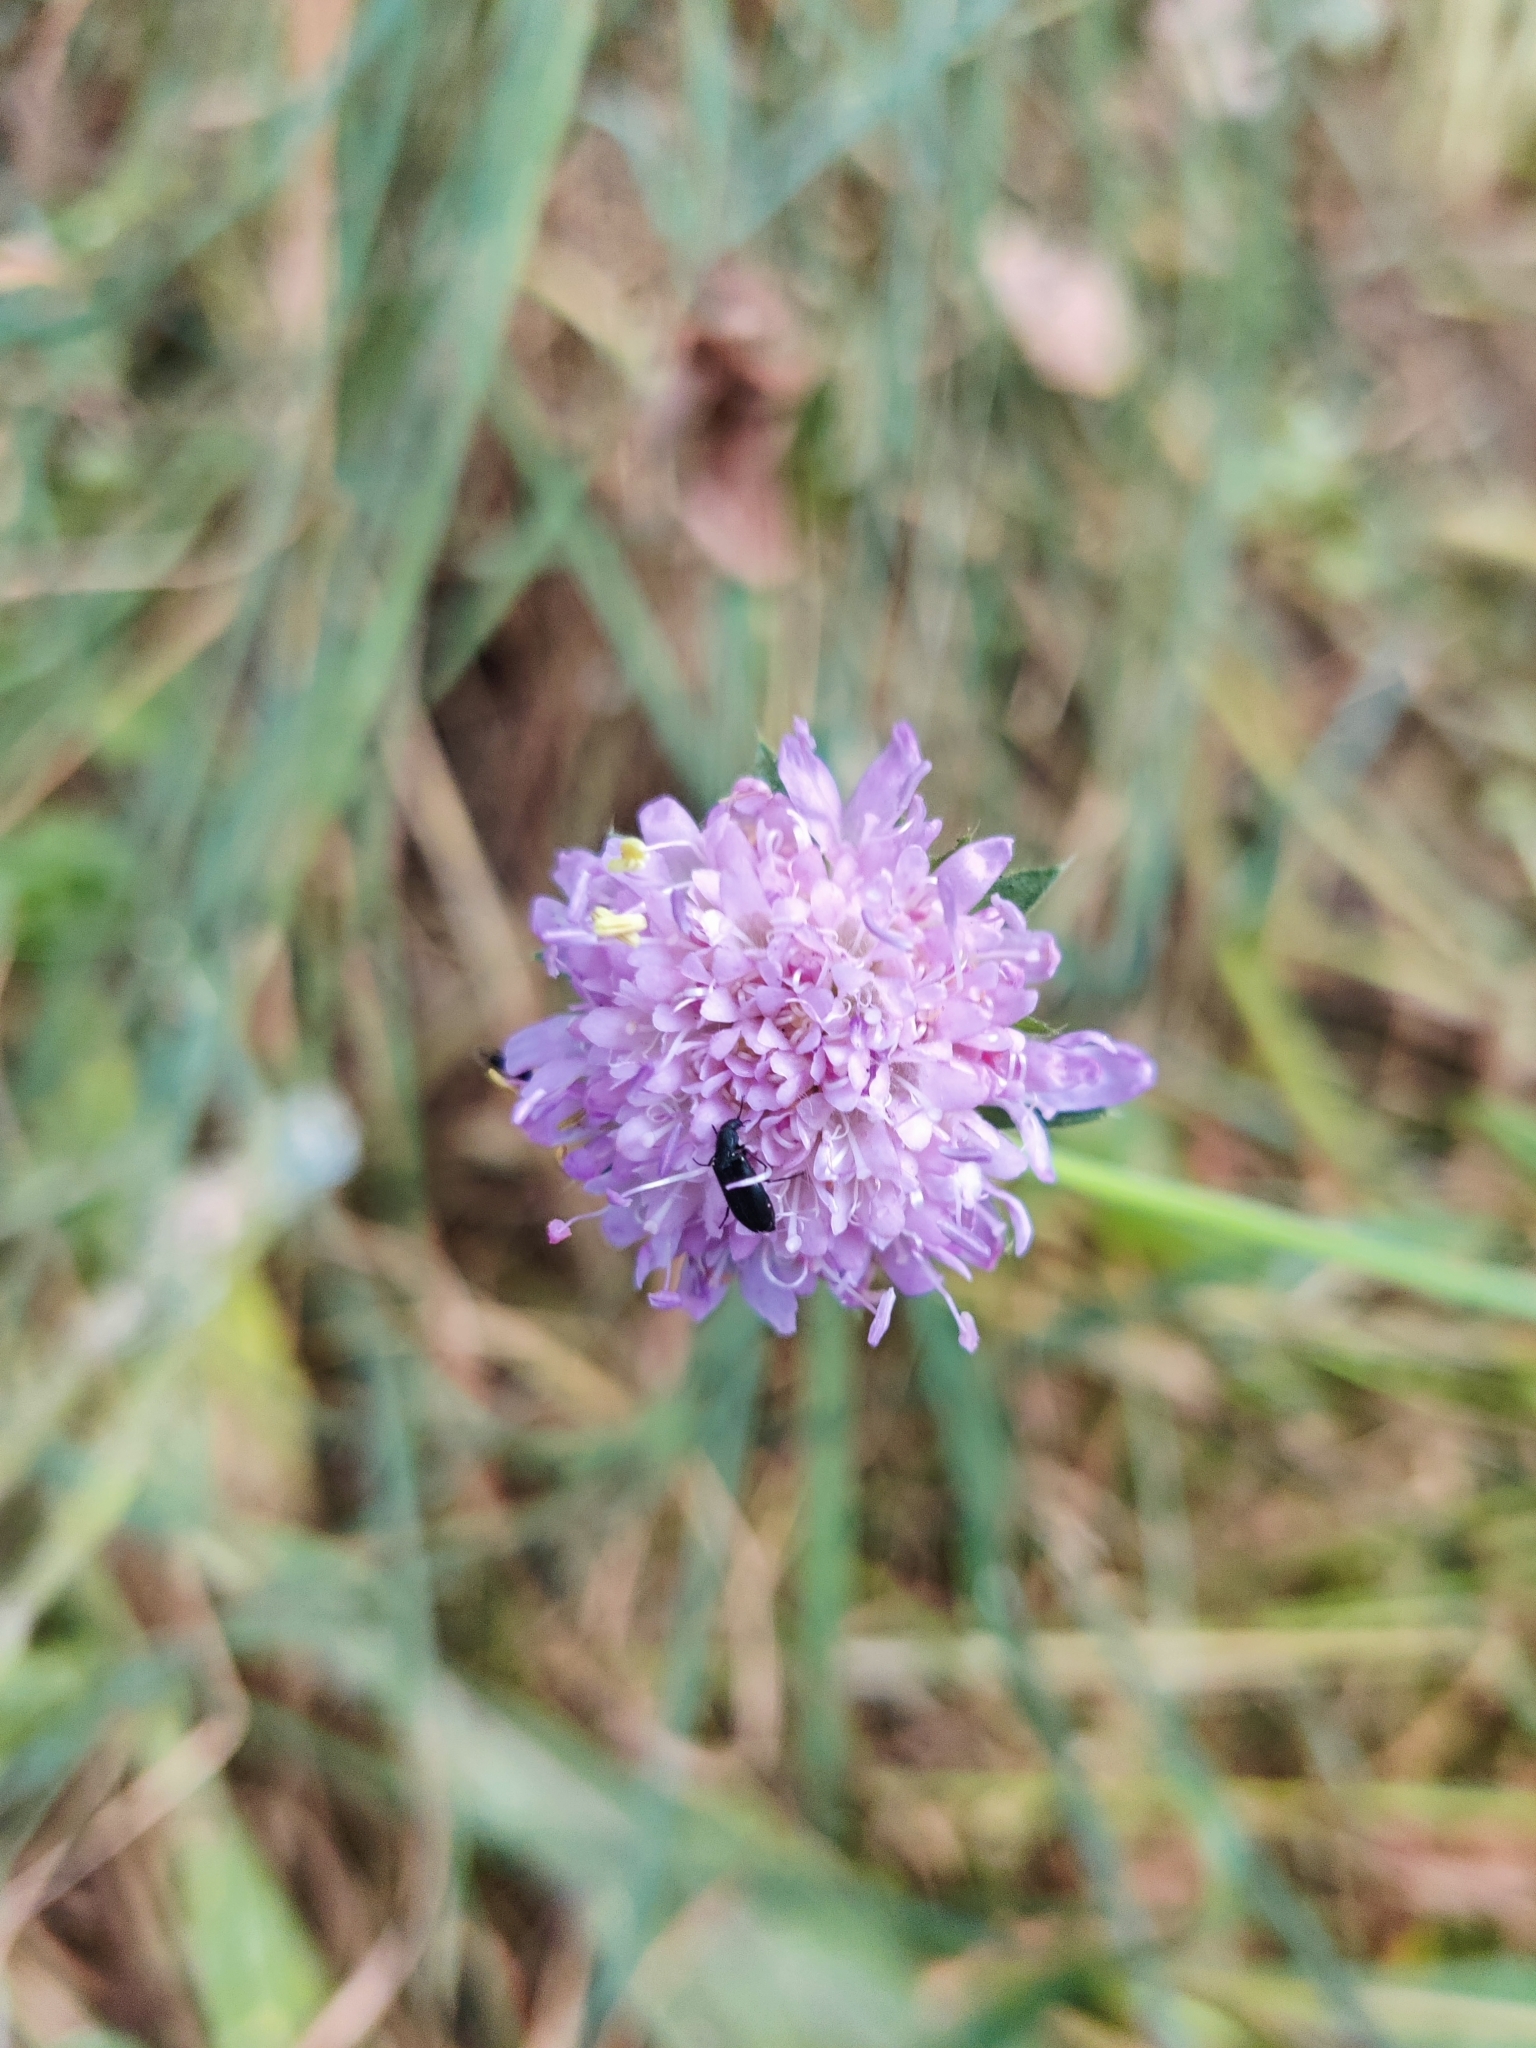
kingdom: Plantae
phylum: Tracheophyta
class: Magnoliopsida
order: Dipsacales
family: Caprifoliaceae
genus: Knautia
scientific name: Knautia arvensis
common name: Field scabiosa
